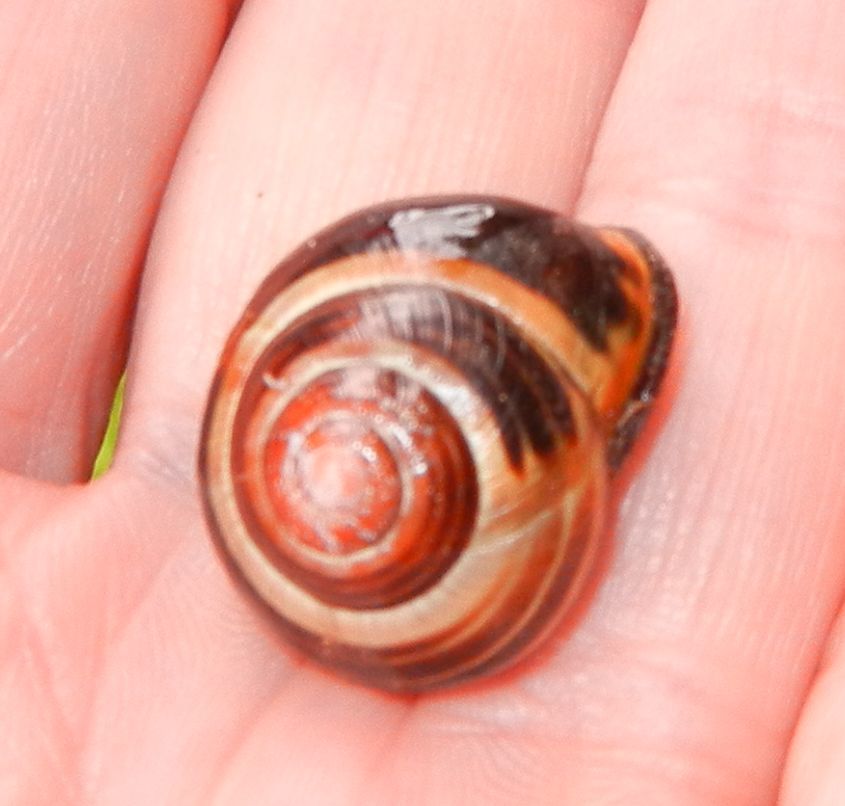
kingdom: Animalia
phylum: Mollusca
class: Gastropoda
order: Stylommatophora
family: Helicidae
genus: Cepaea
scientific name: Cepaea nemoralis
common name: Grovesnail
